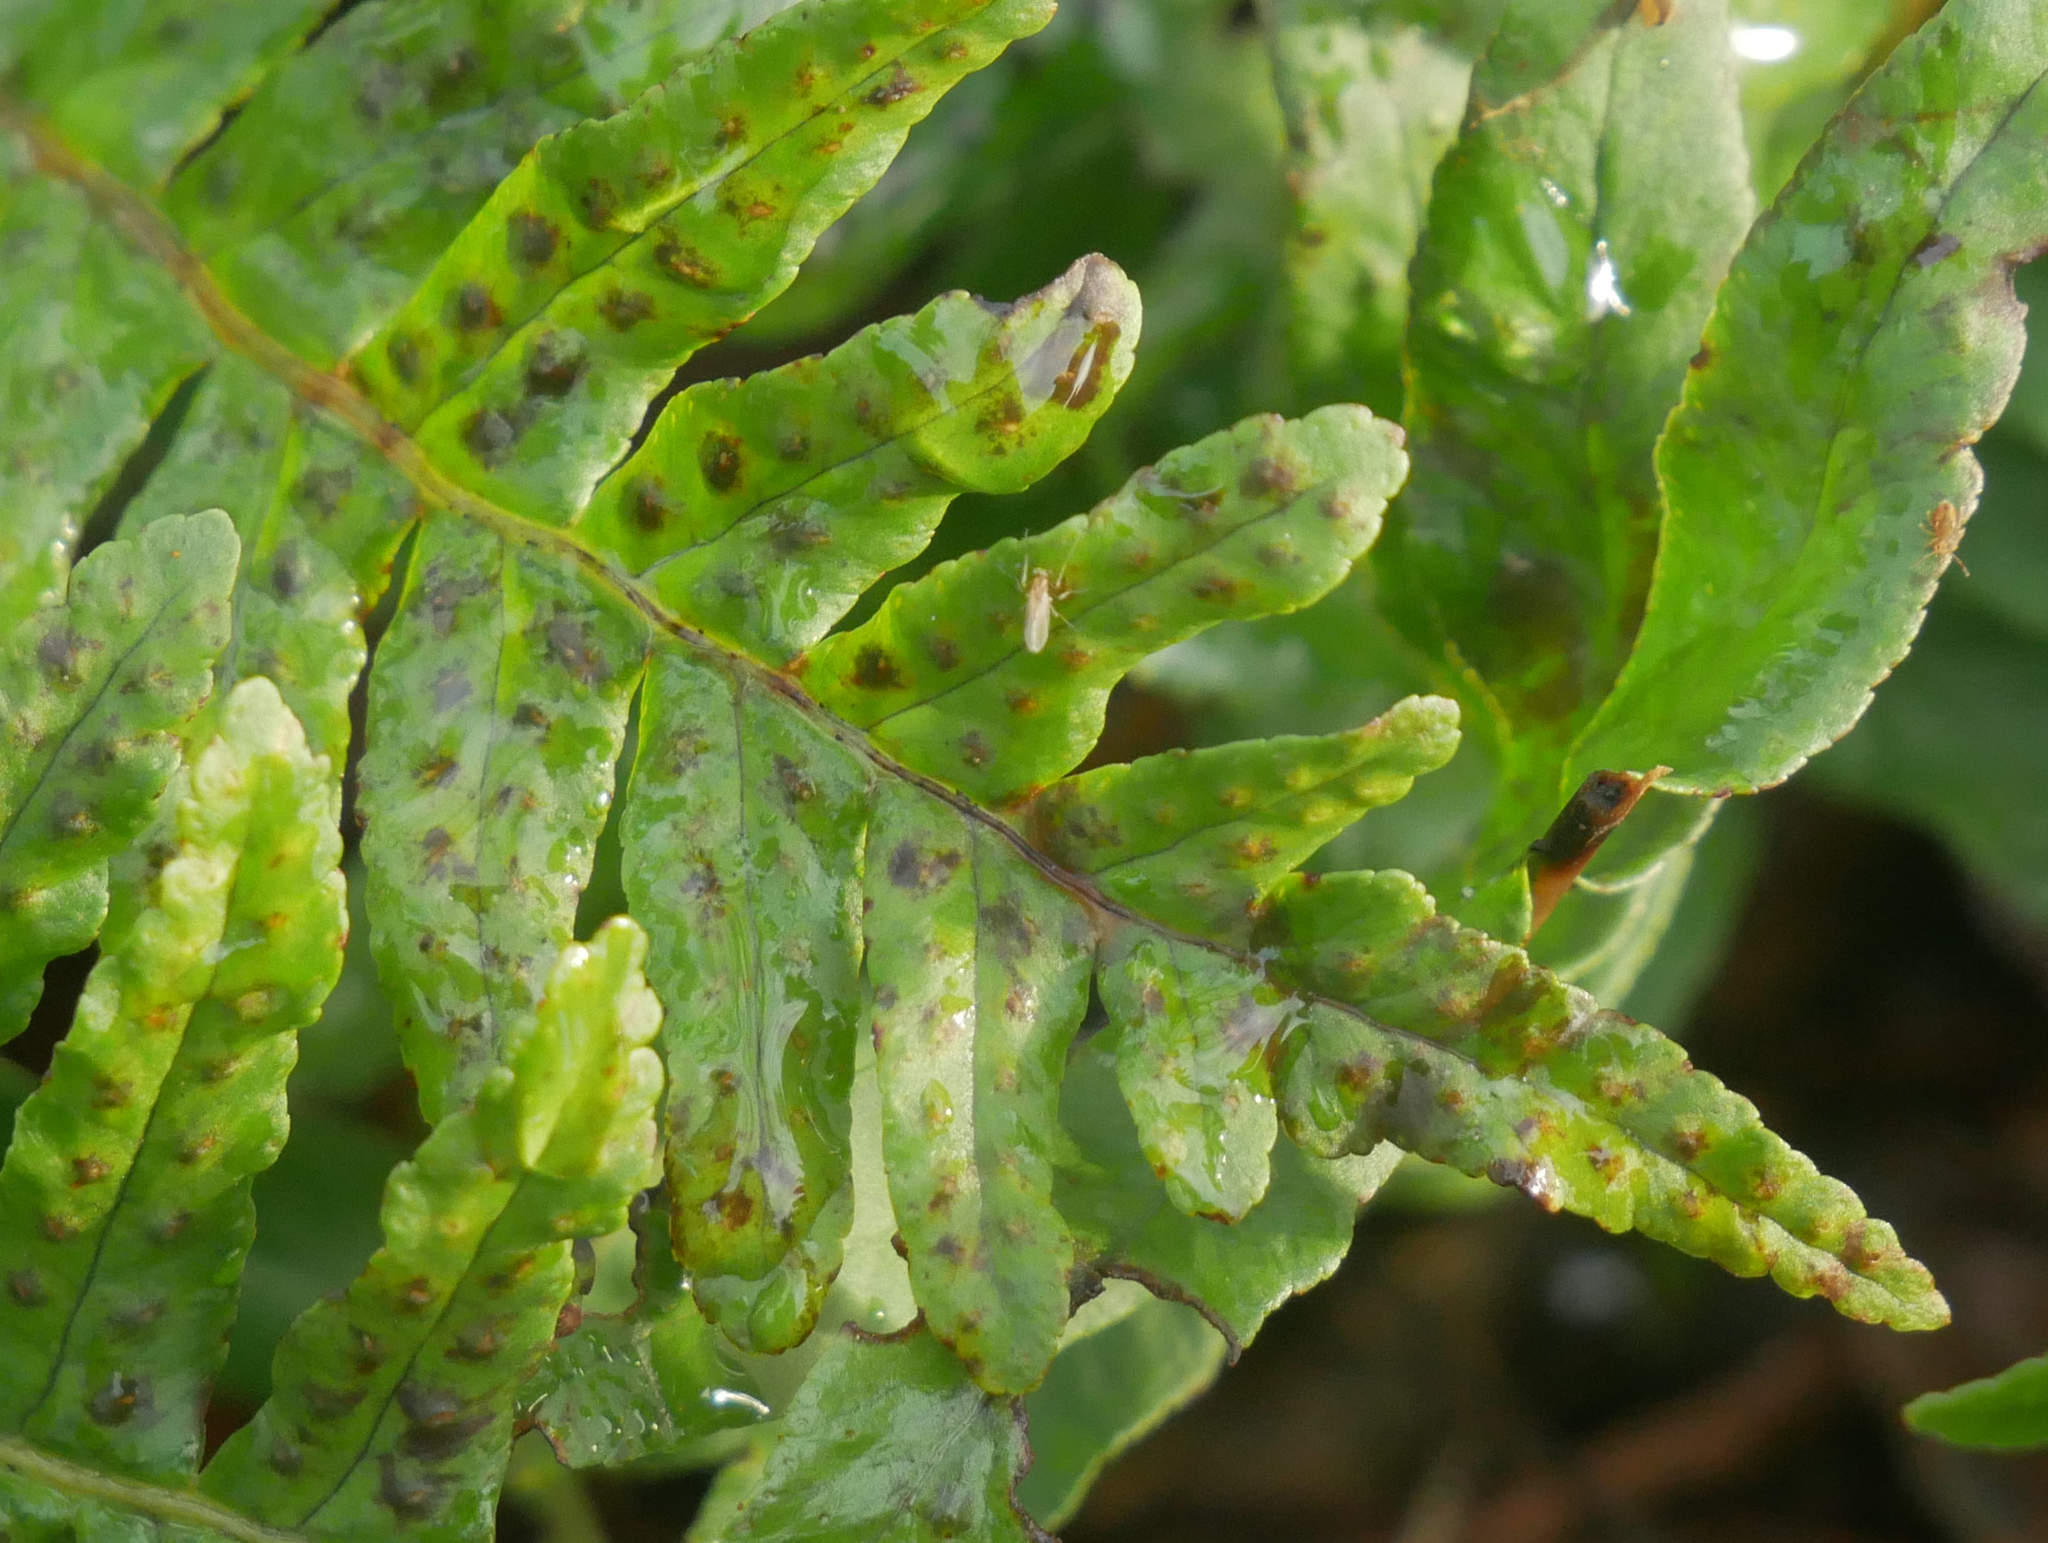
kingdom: Plantae
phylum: Tracheophyta
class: Polypodiopsida
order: Polypodiales
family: Polypodiaceae
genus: Polypodium
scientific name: Polypodium vulgare
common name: Common polypody
